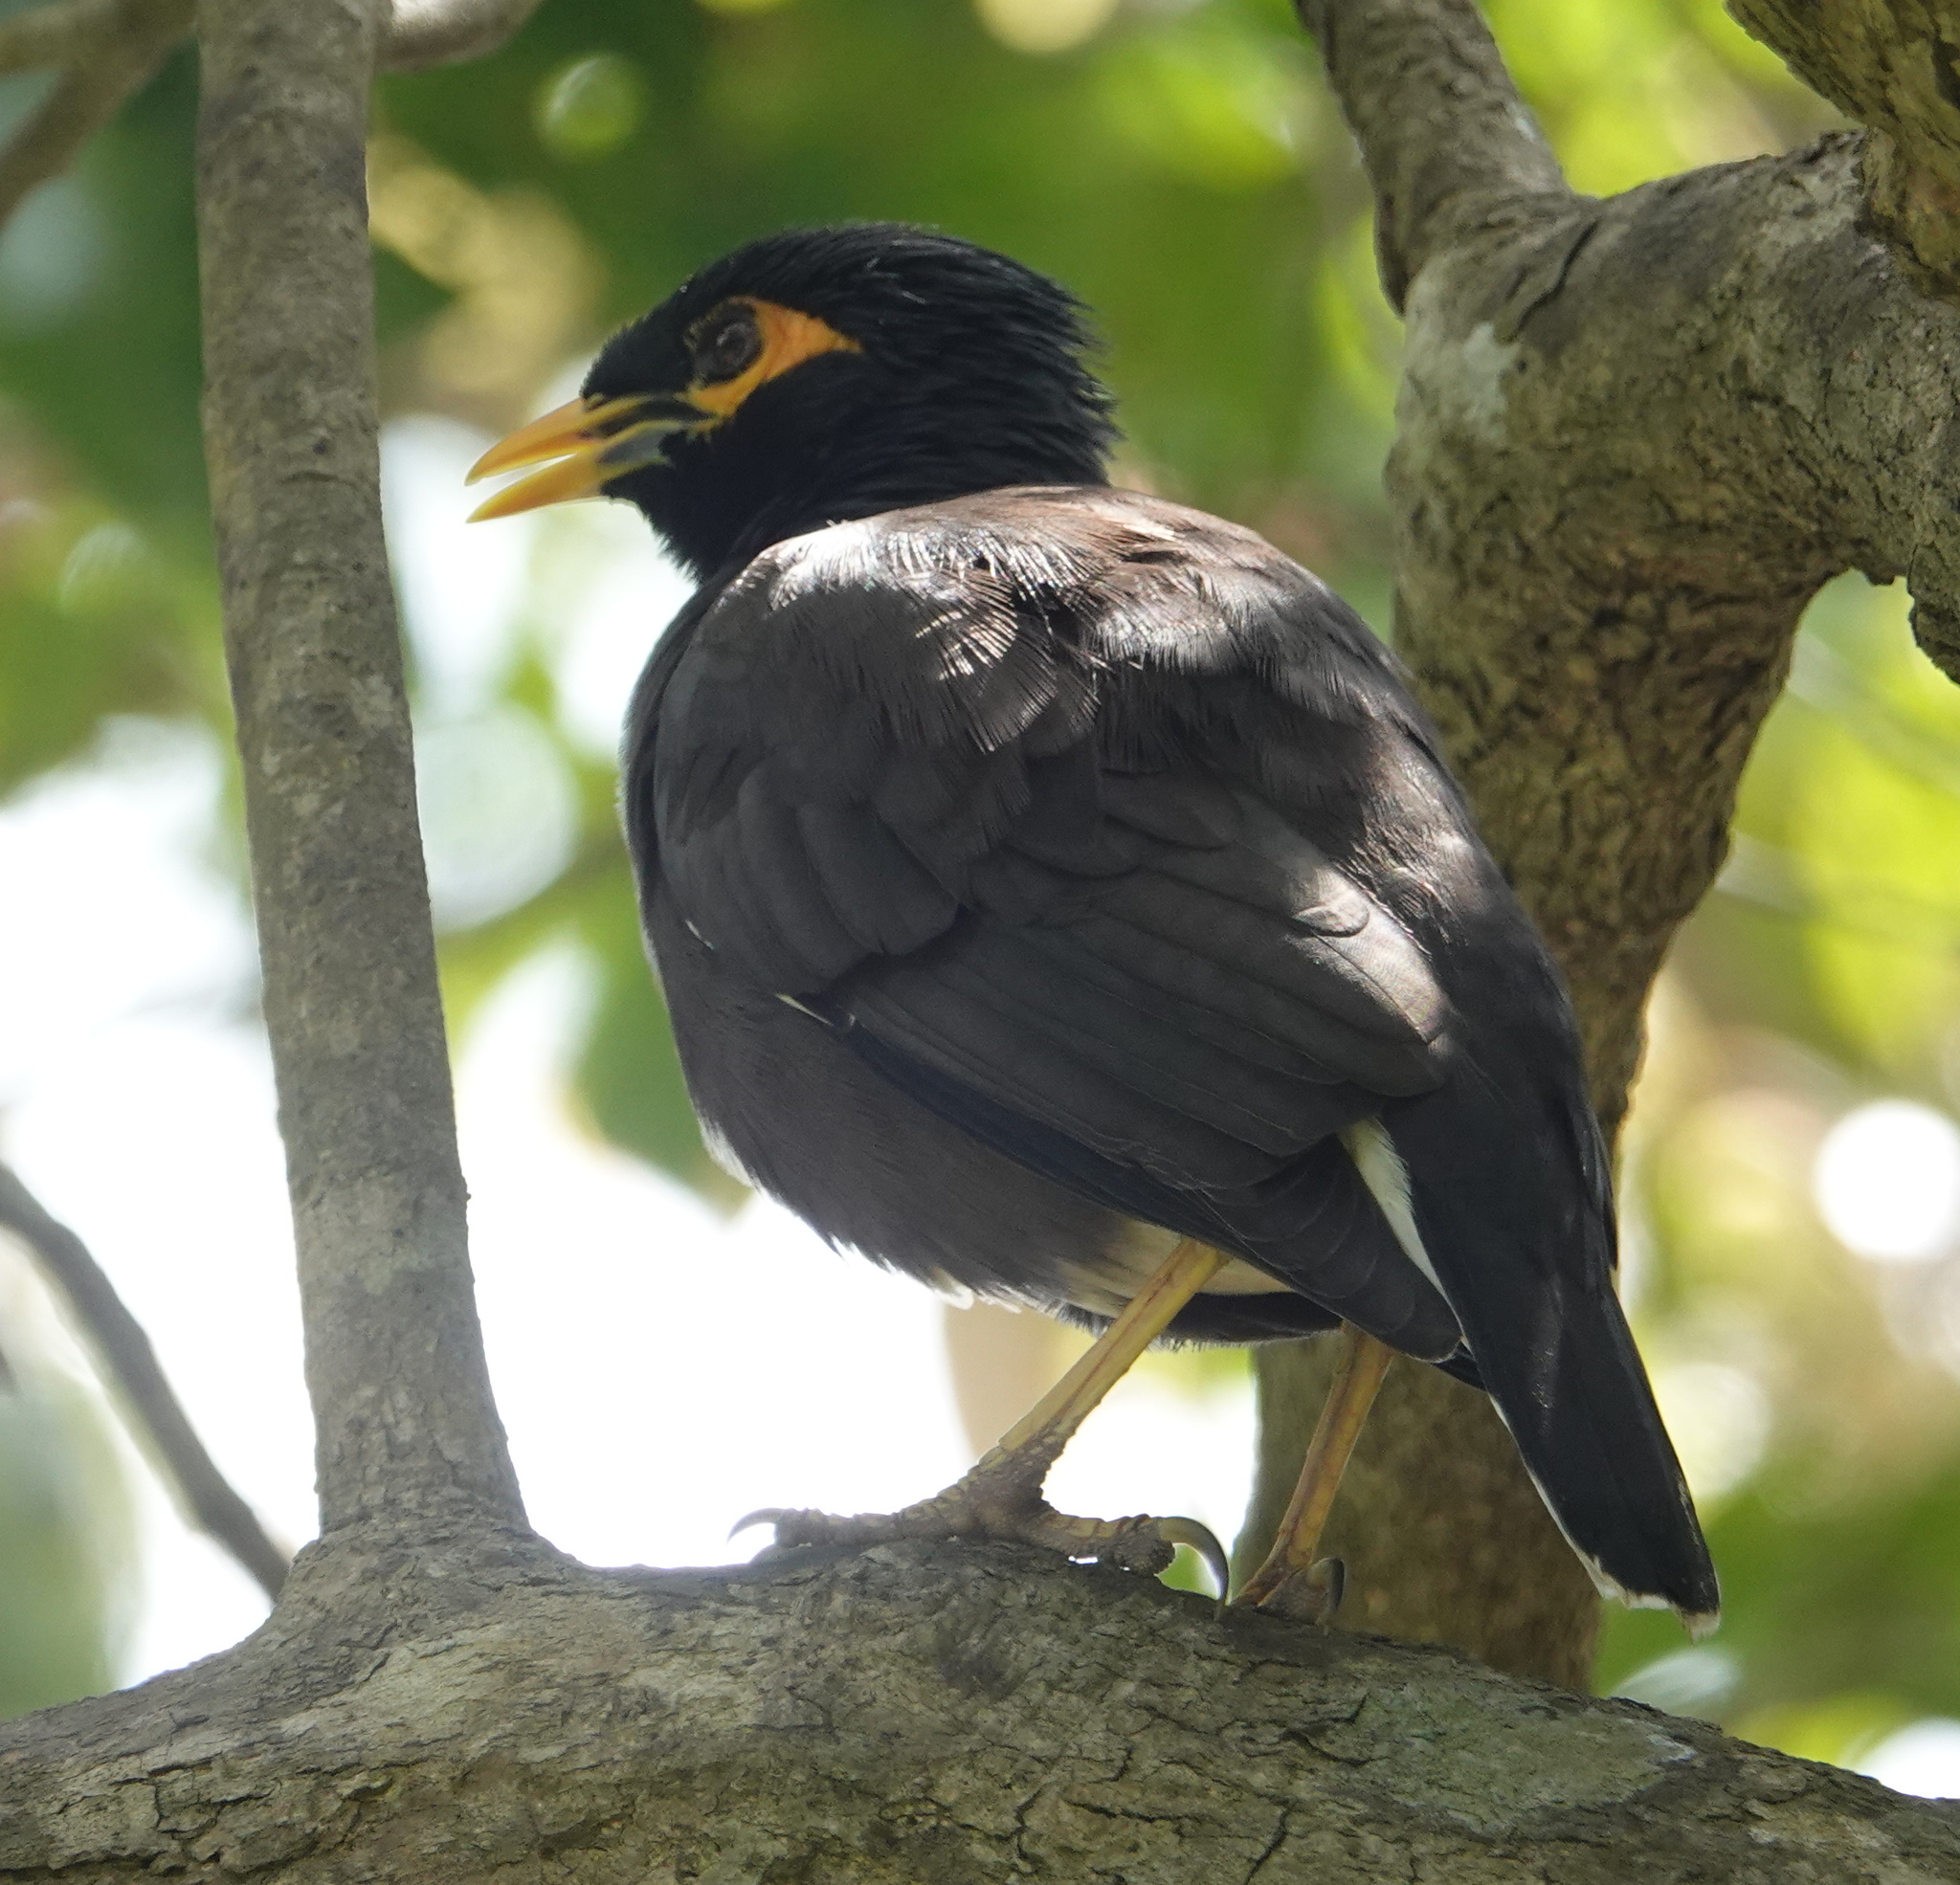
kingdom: Animalia
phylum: Chordata
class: Aves
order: Passeriformes
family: Sturnidae
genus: Acridotheres
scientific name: Acridotheres tristis
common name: Common myna
